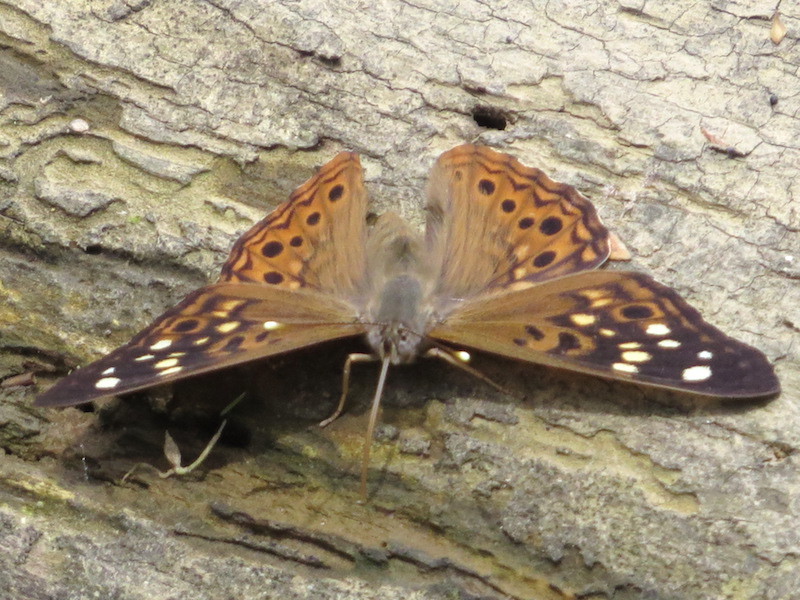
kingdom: Animalia
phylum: Arthropoda
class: Insecta
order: Lepidoptera
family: Nymphalidae
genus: Asterocampa
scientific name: Asterocampa celtis
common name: Hackberry emperor
